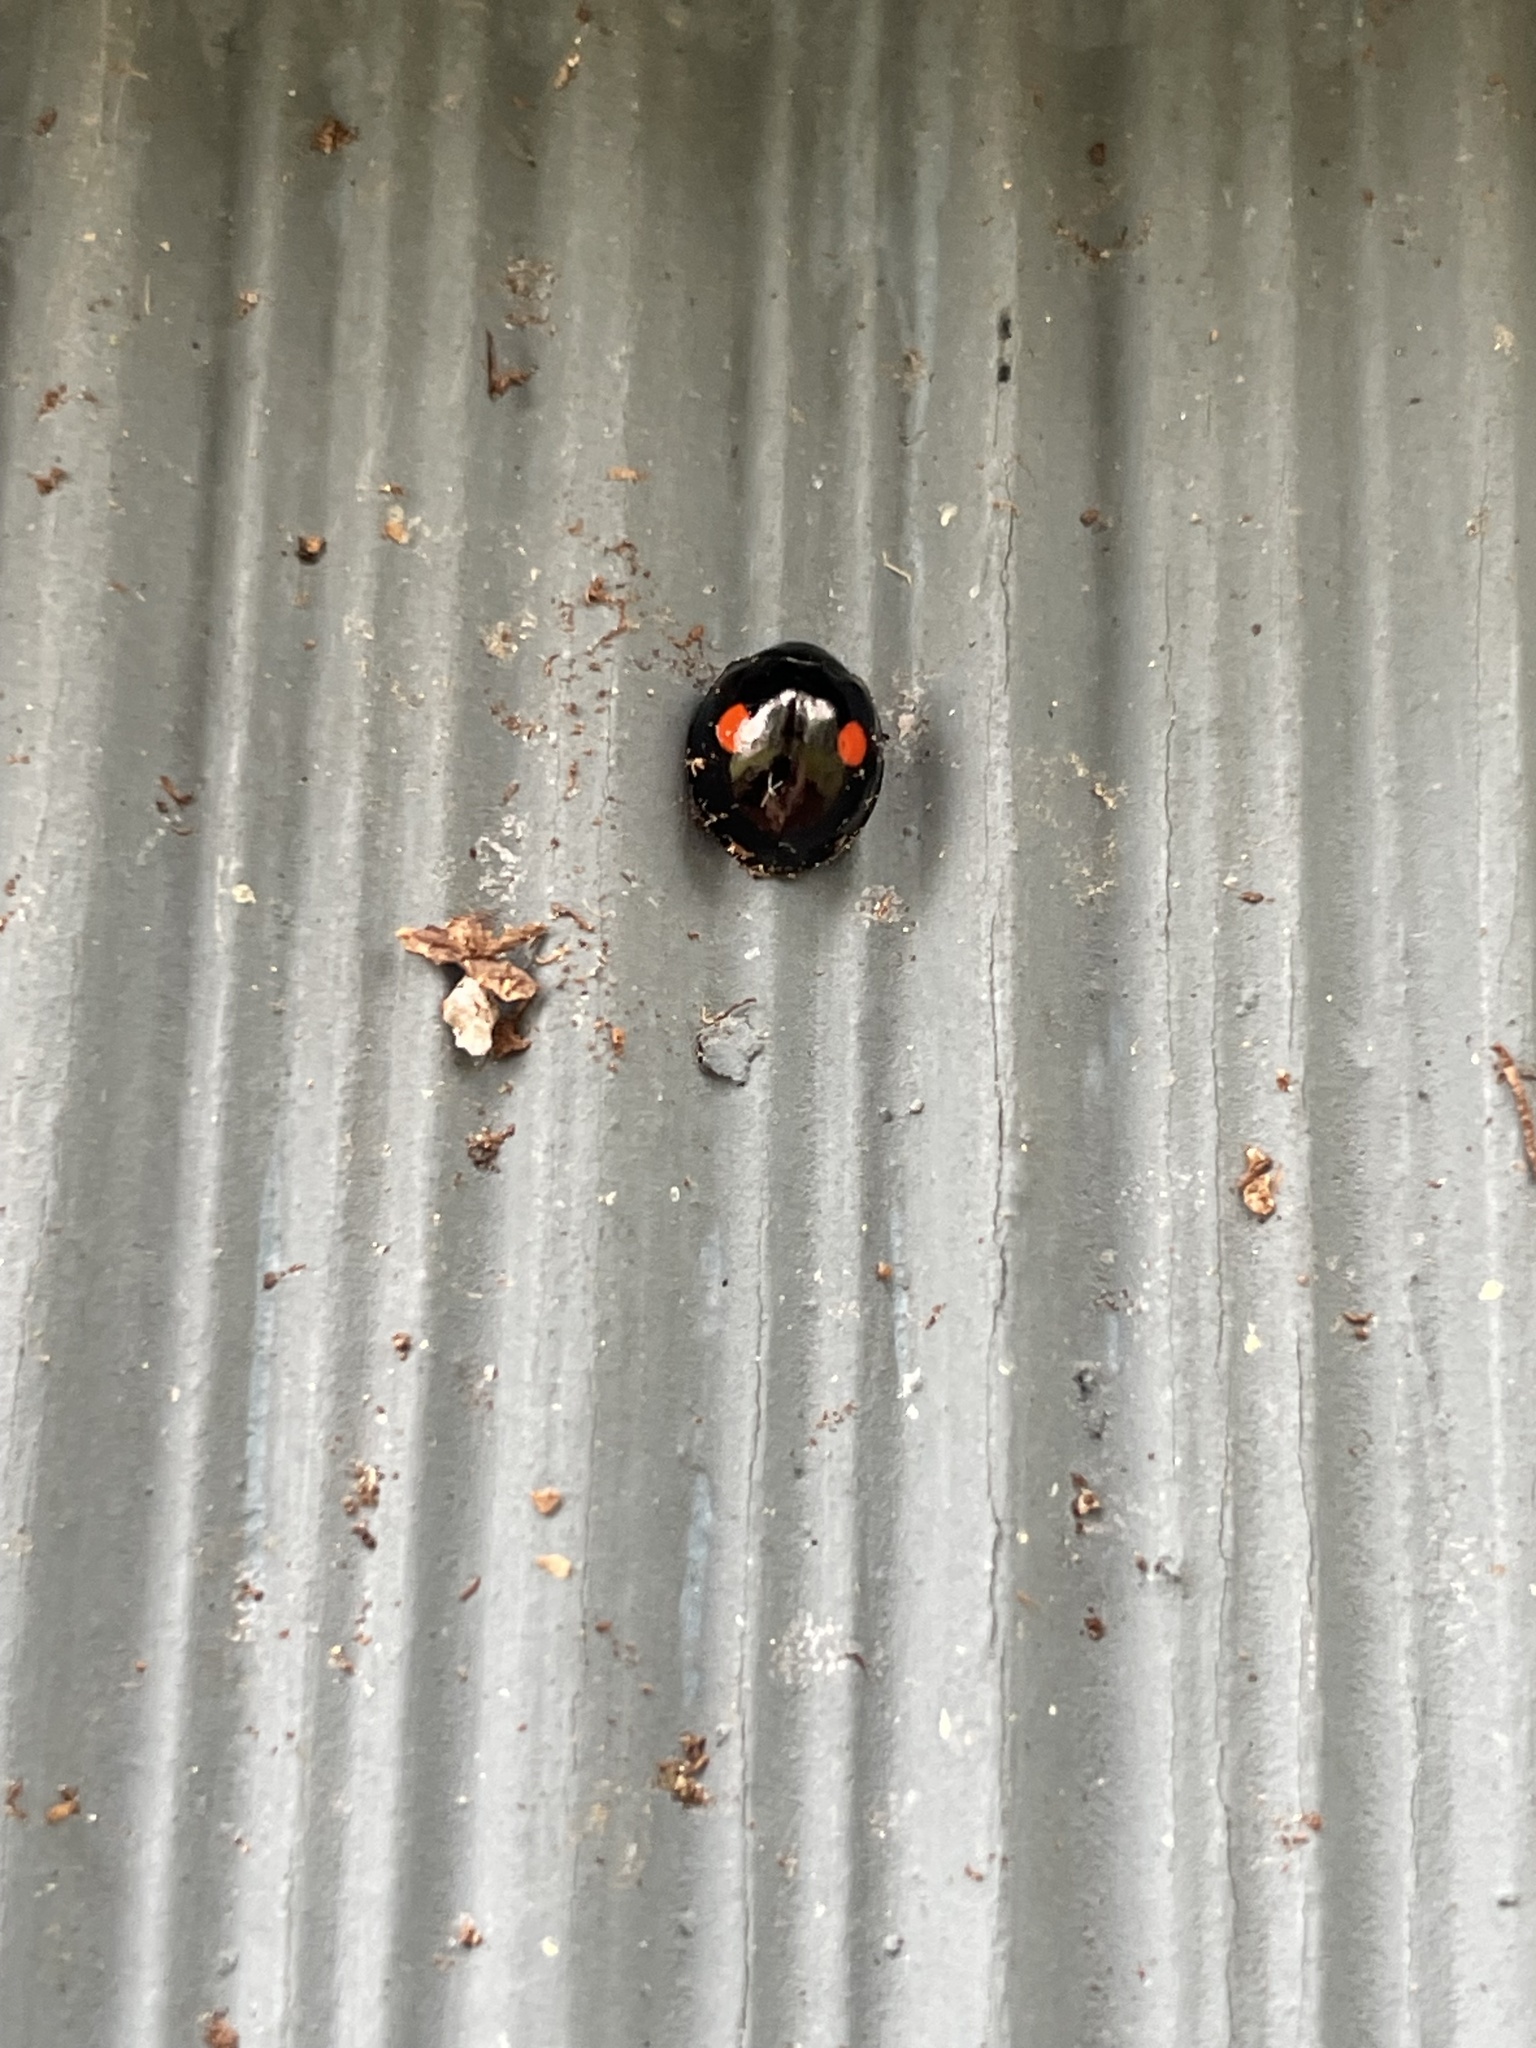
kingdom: Animalia
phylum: Arthropoda
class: Insecta
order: Coleoptera
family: Coccinellidae
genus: Chilocorus
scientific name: Chilocorus stigma
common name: Twicestabbed lady beetle
